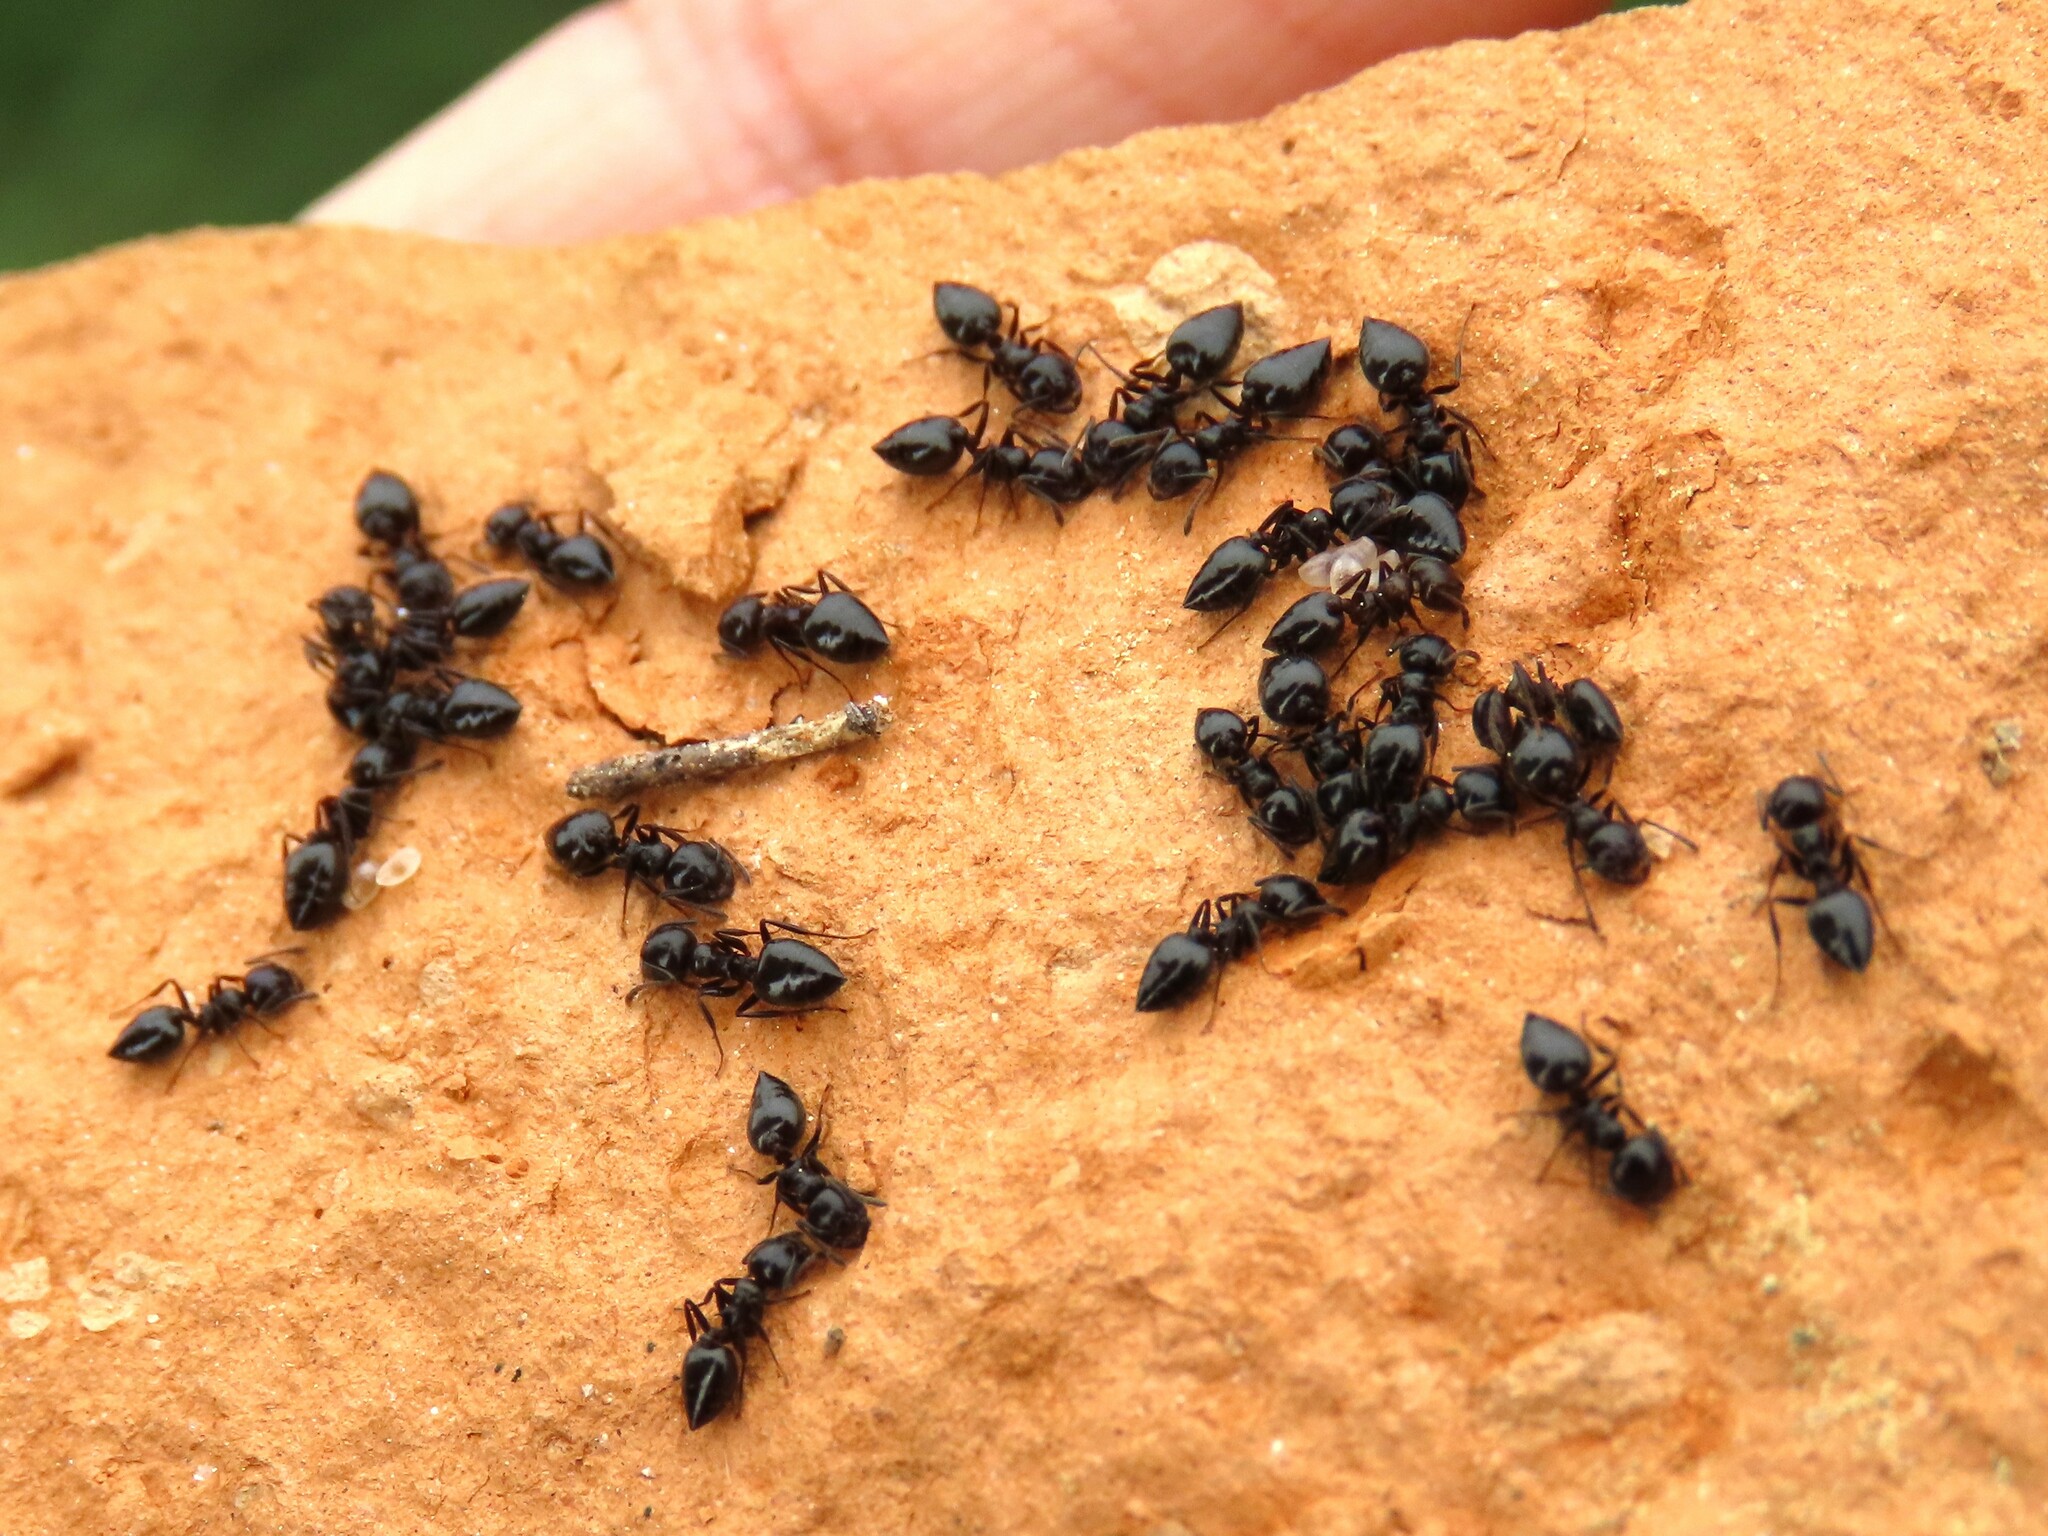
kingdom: Animalia
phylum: Arthropoda
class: Insecta
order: Hymenoptera
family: Formicidae
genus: Crematogaster
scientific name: Crematogaster auberti
